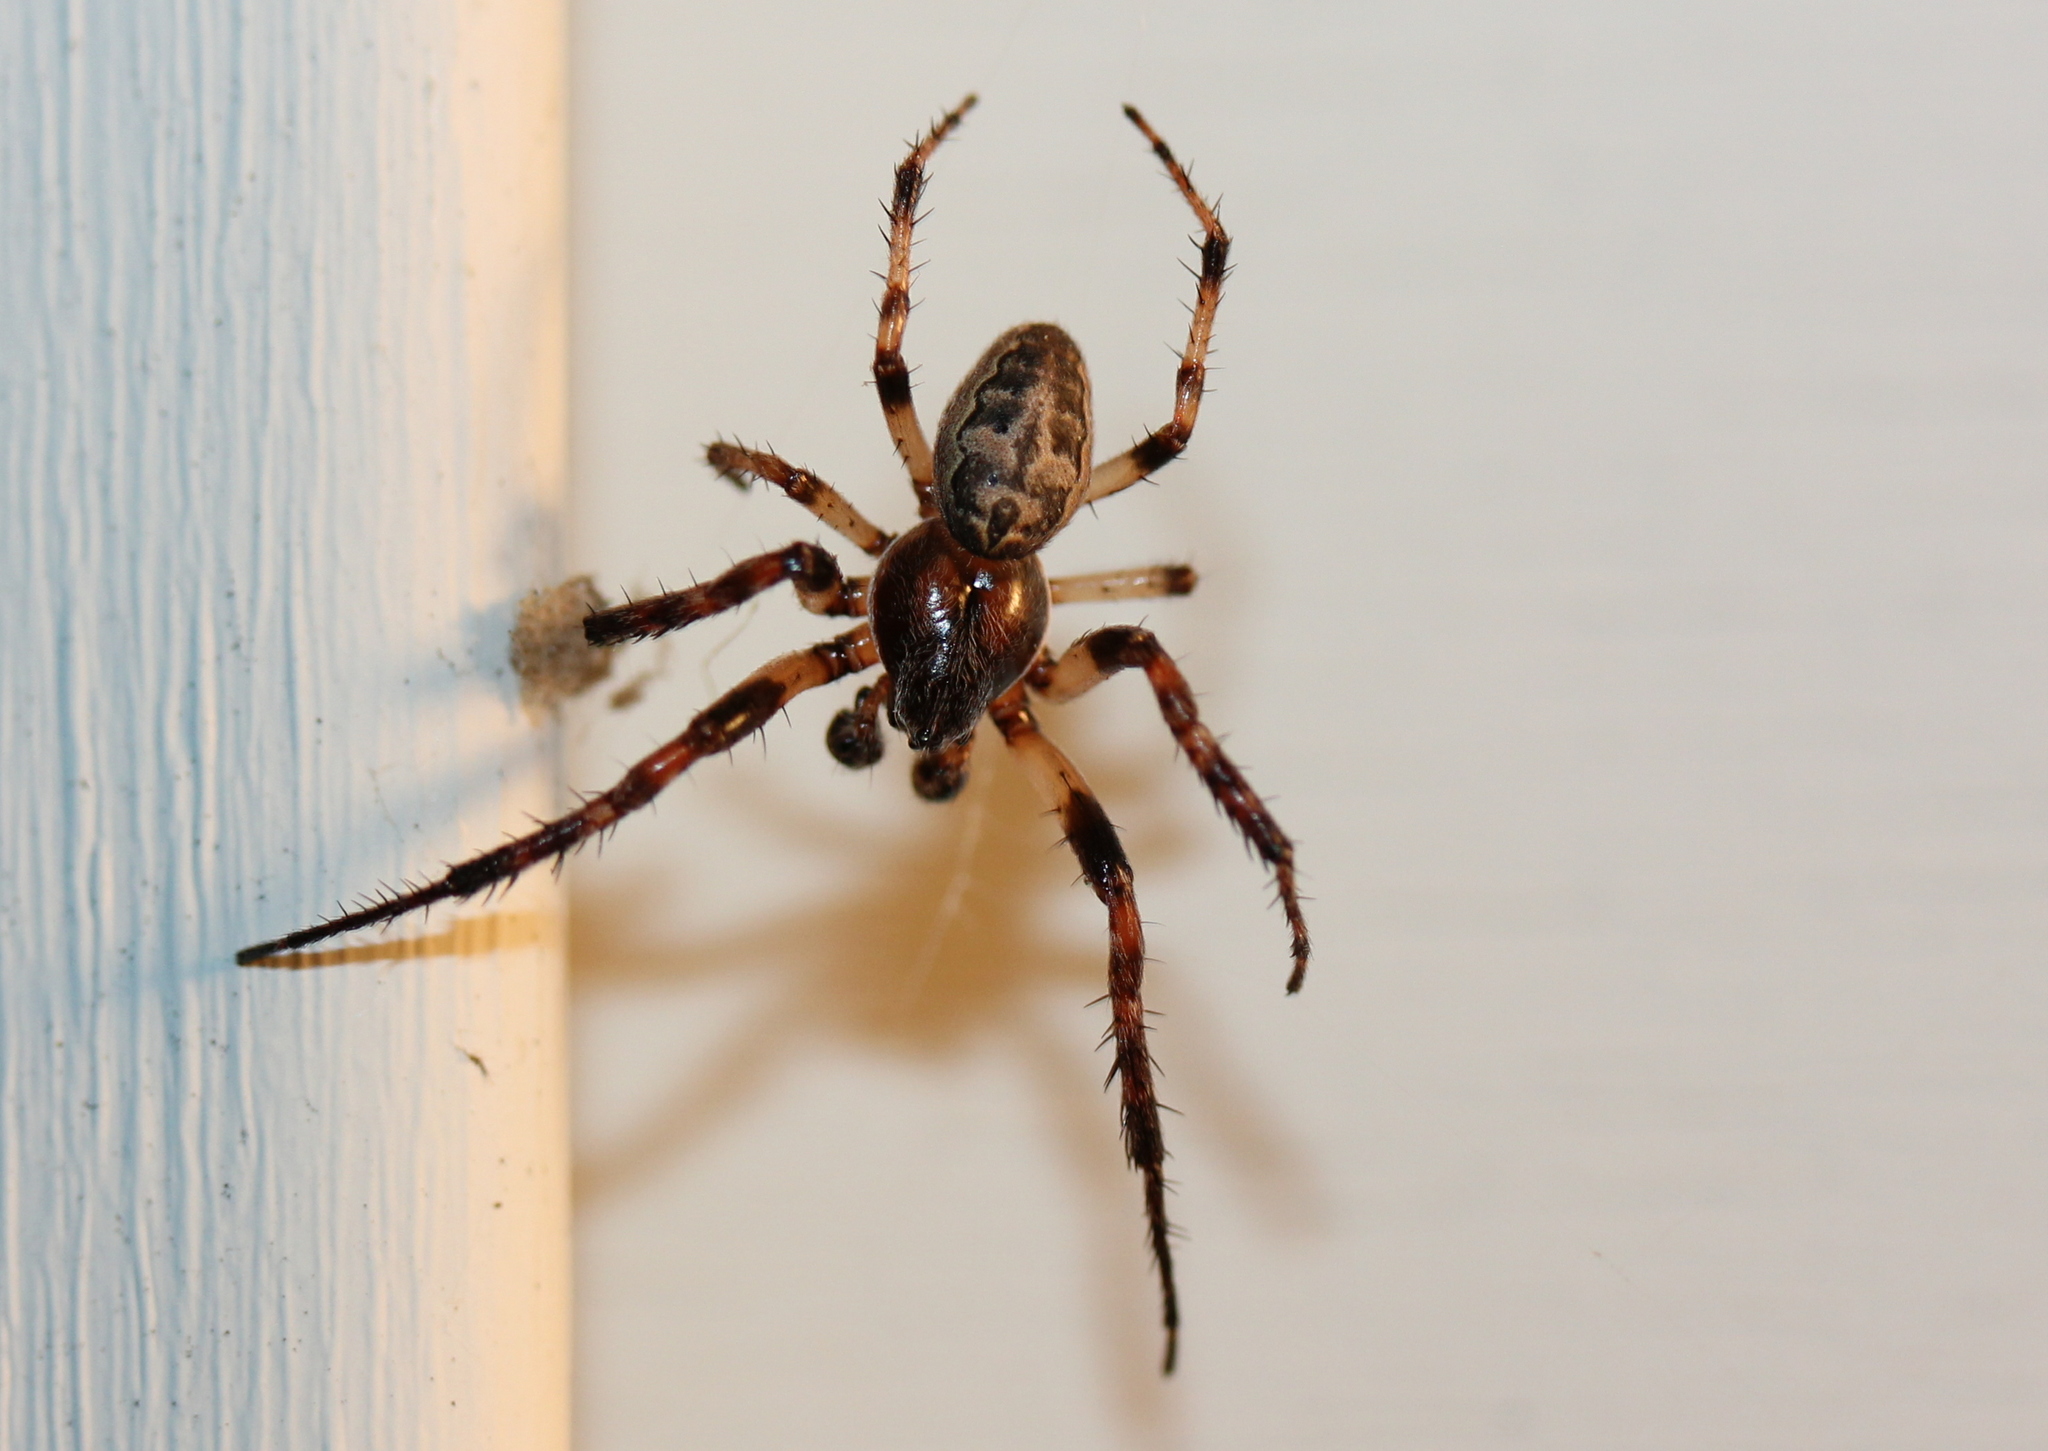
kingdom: Animalia
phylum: Arthropoda
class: Arachnida
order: Araneae
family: Araneidae
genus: Larinioides
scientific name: Larinioides cornutus
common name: Furrow orbweaver
